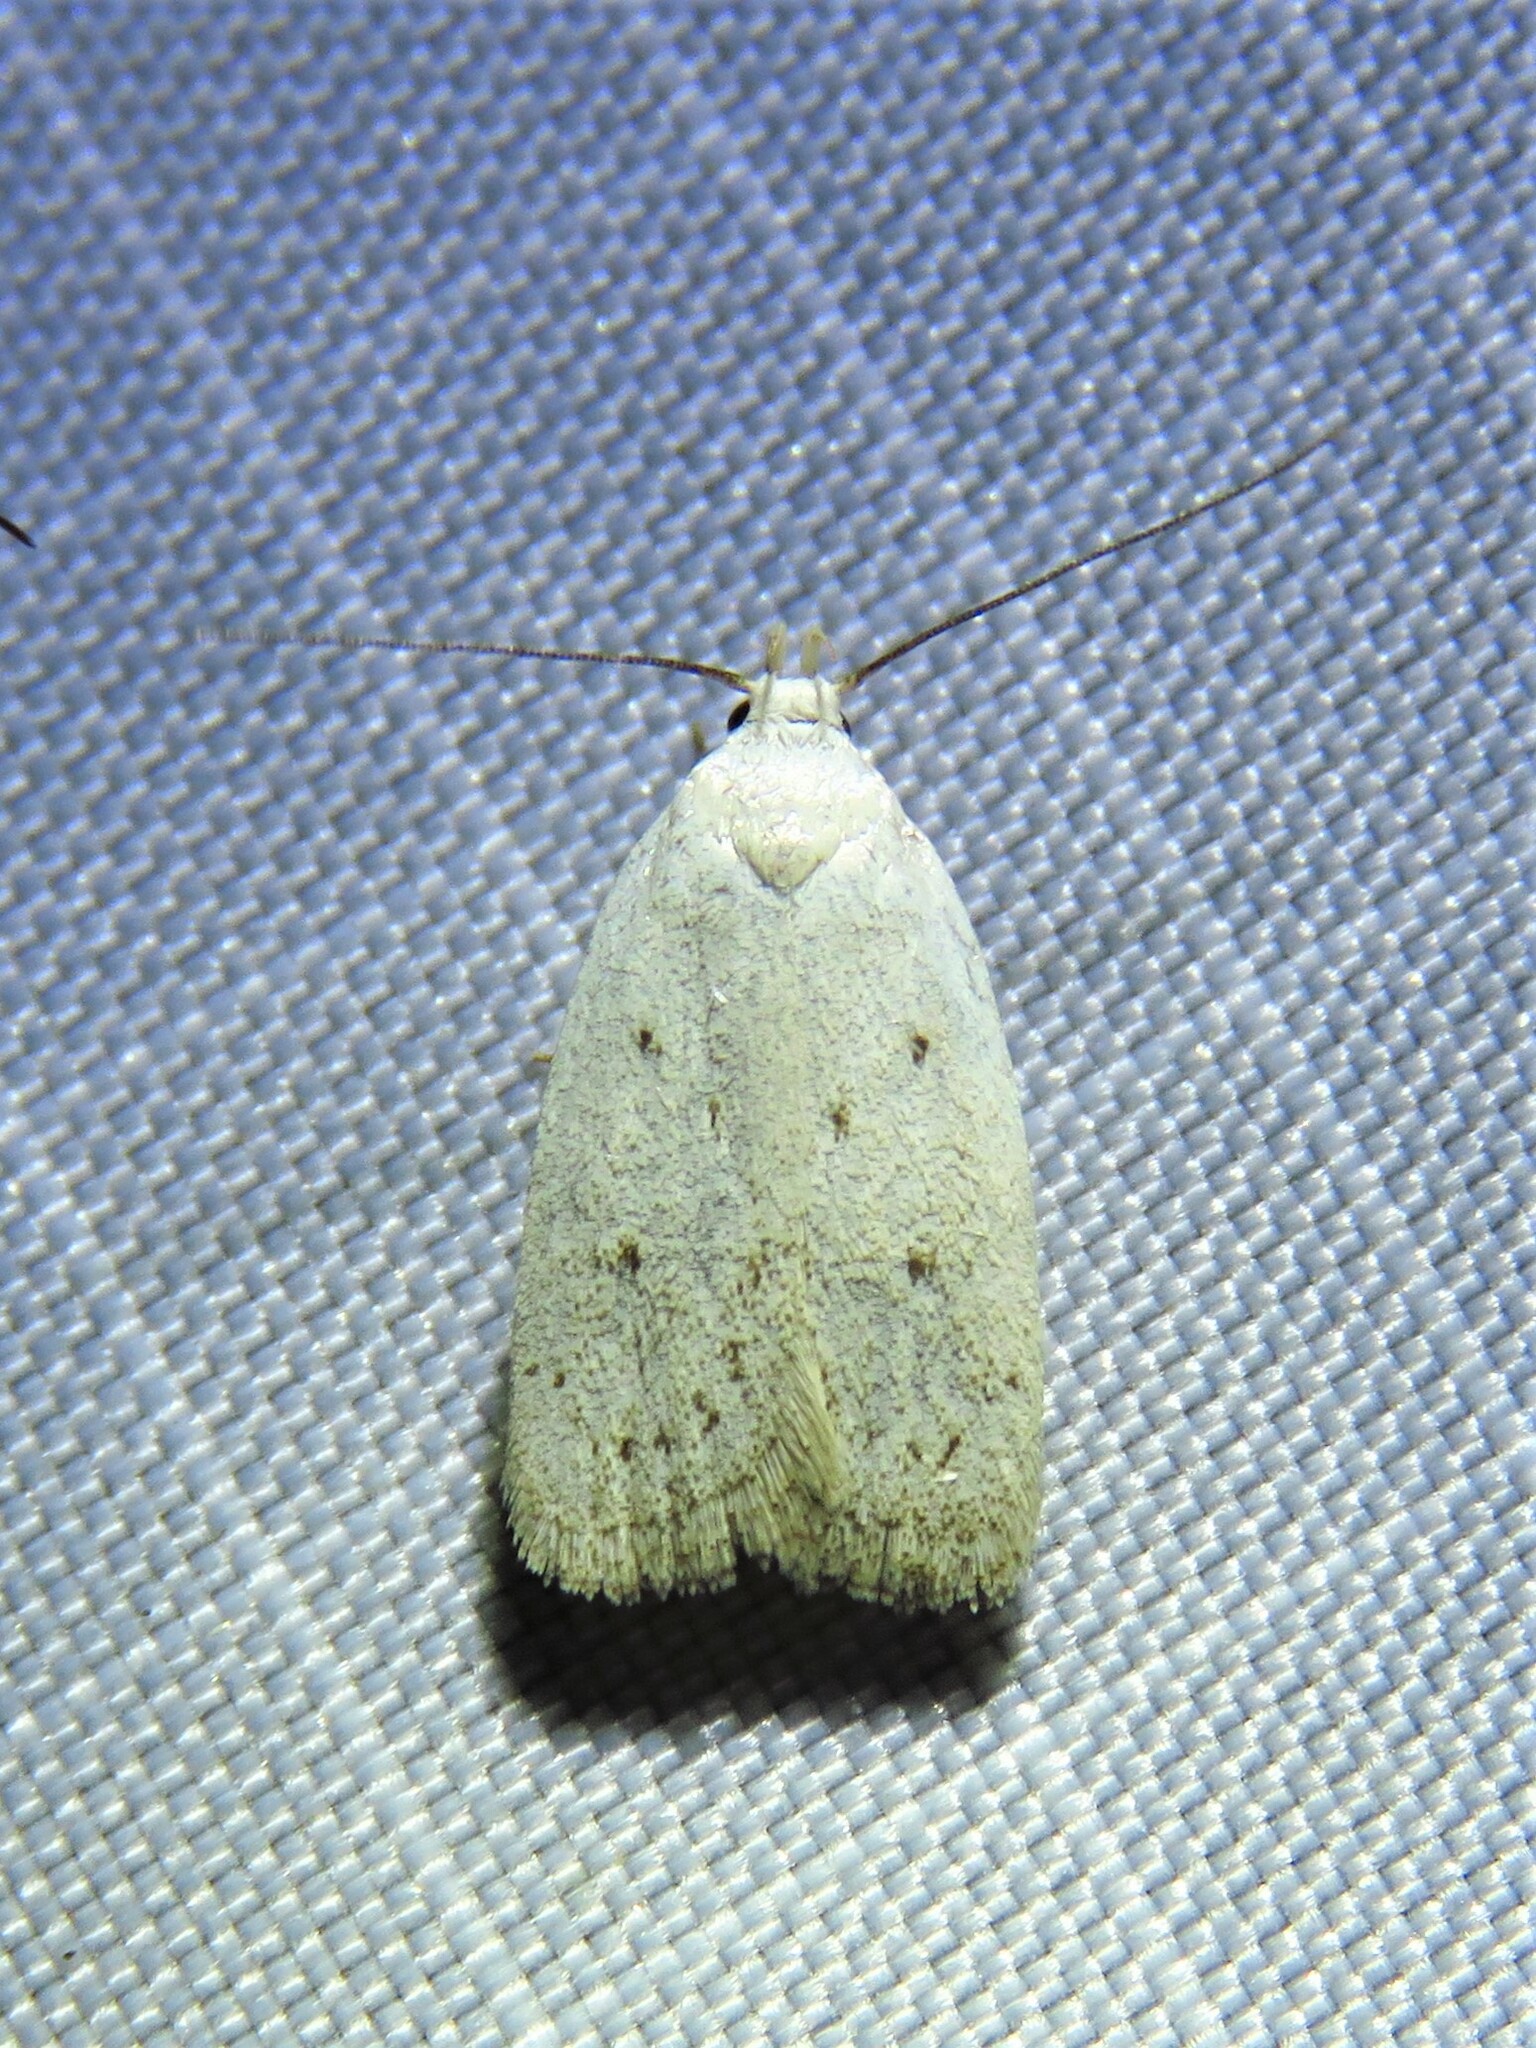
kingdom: Animalia
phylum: Arthropoda
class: Insecta
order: Lepidoptera
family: Oecophoridae
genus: Inga
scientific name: Inga cretacea
